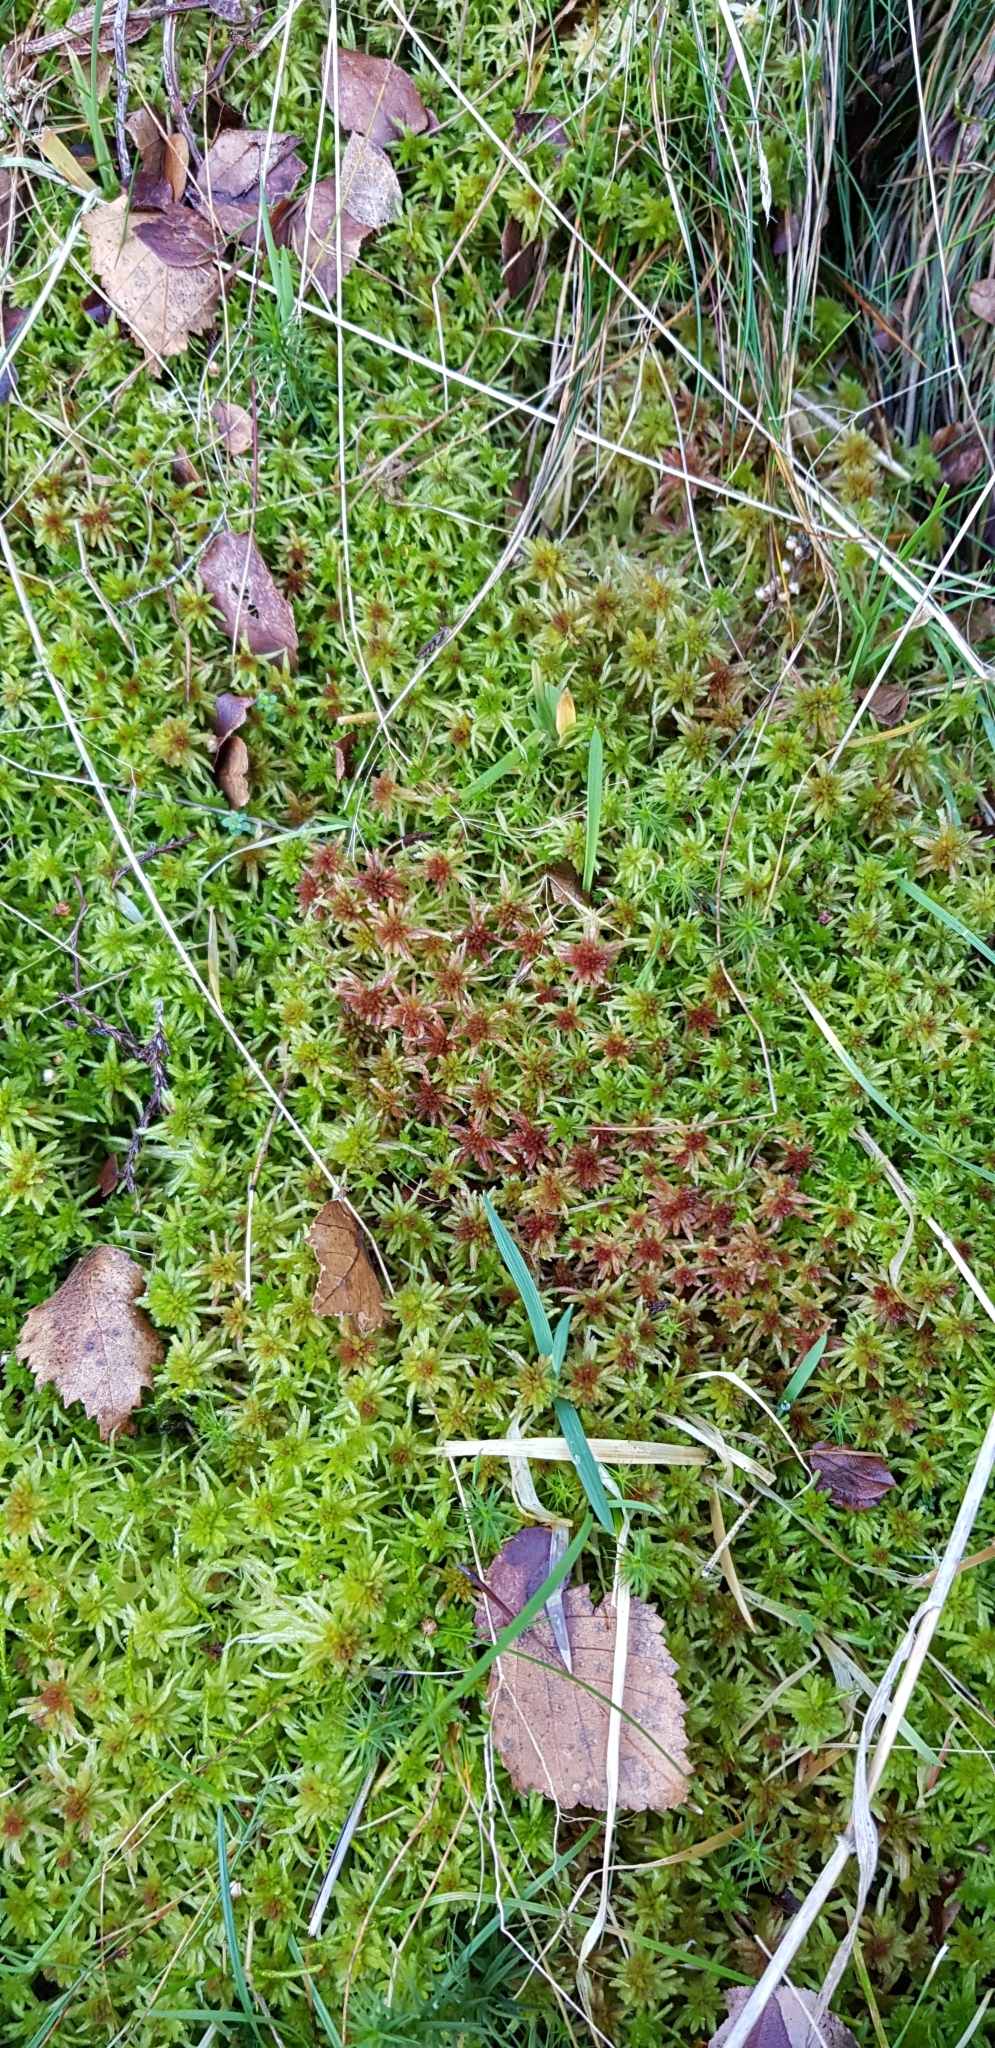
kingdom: Plantae
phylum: Bryophyta
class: Sphagnopsida
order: Sphagnales
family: Sphagnaceae
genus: Sphagnum
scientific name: Sphagnum russowii
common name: Russow's peat moss
